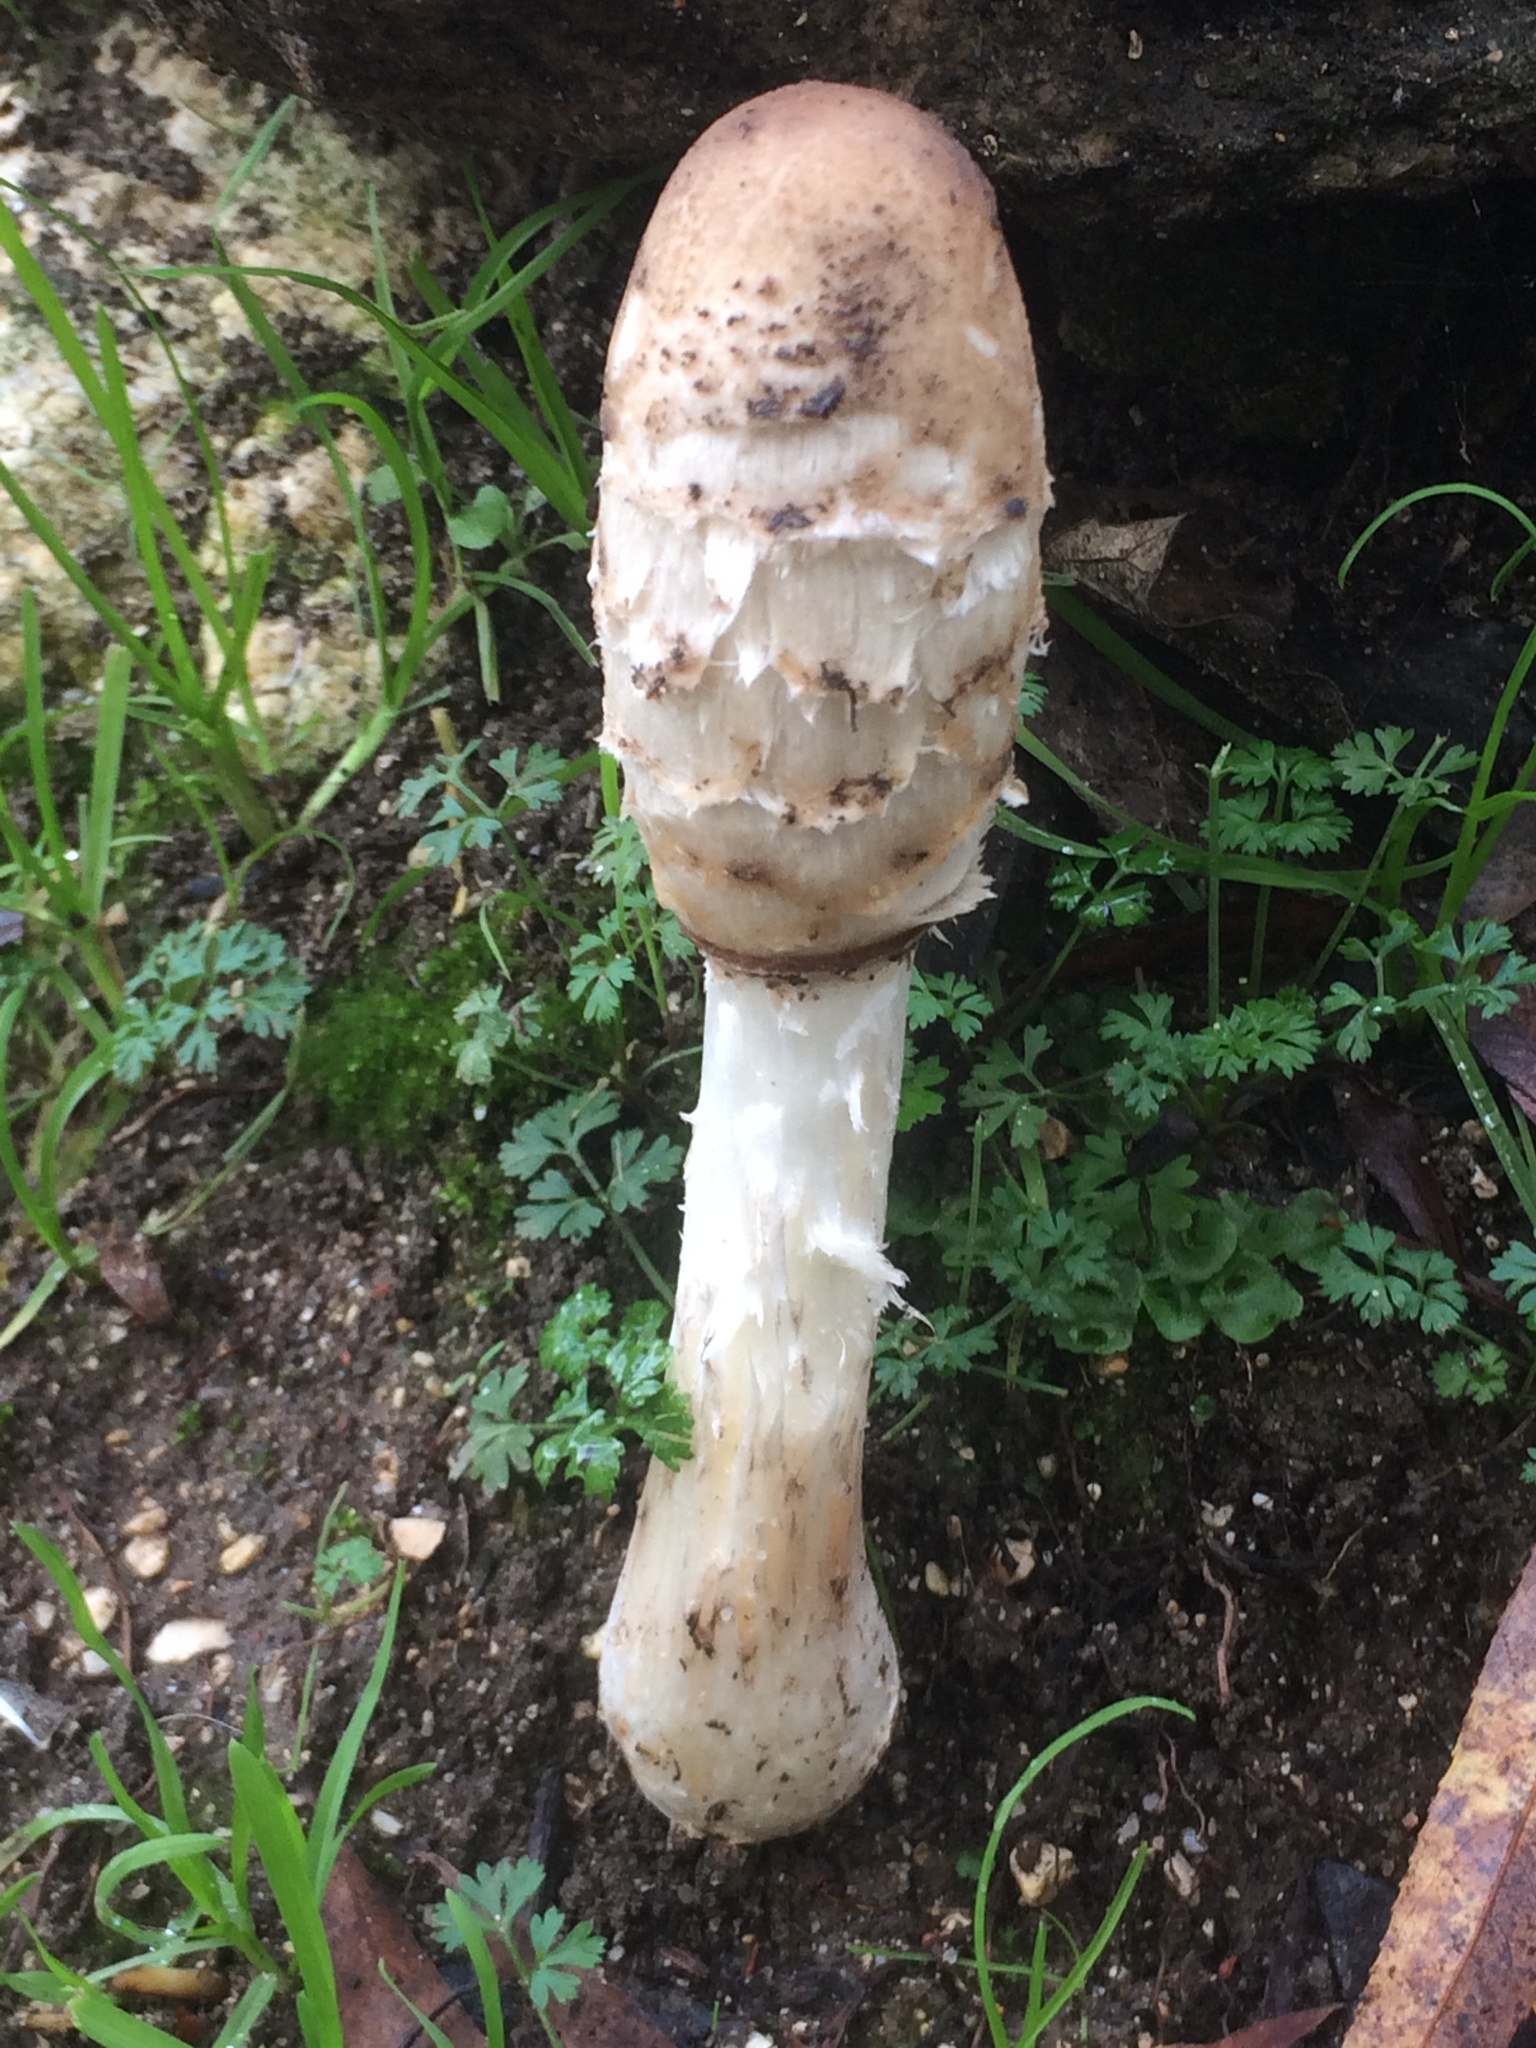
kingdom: Fungi
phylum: Basidiomycota
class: Agaricomycetes
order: Agaricales
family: Agaricaceae
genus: Coprinus
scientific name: Coprinus comatus
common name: Lawyer's wig
